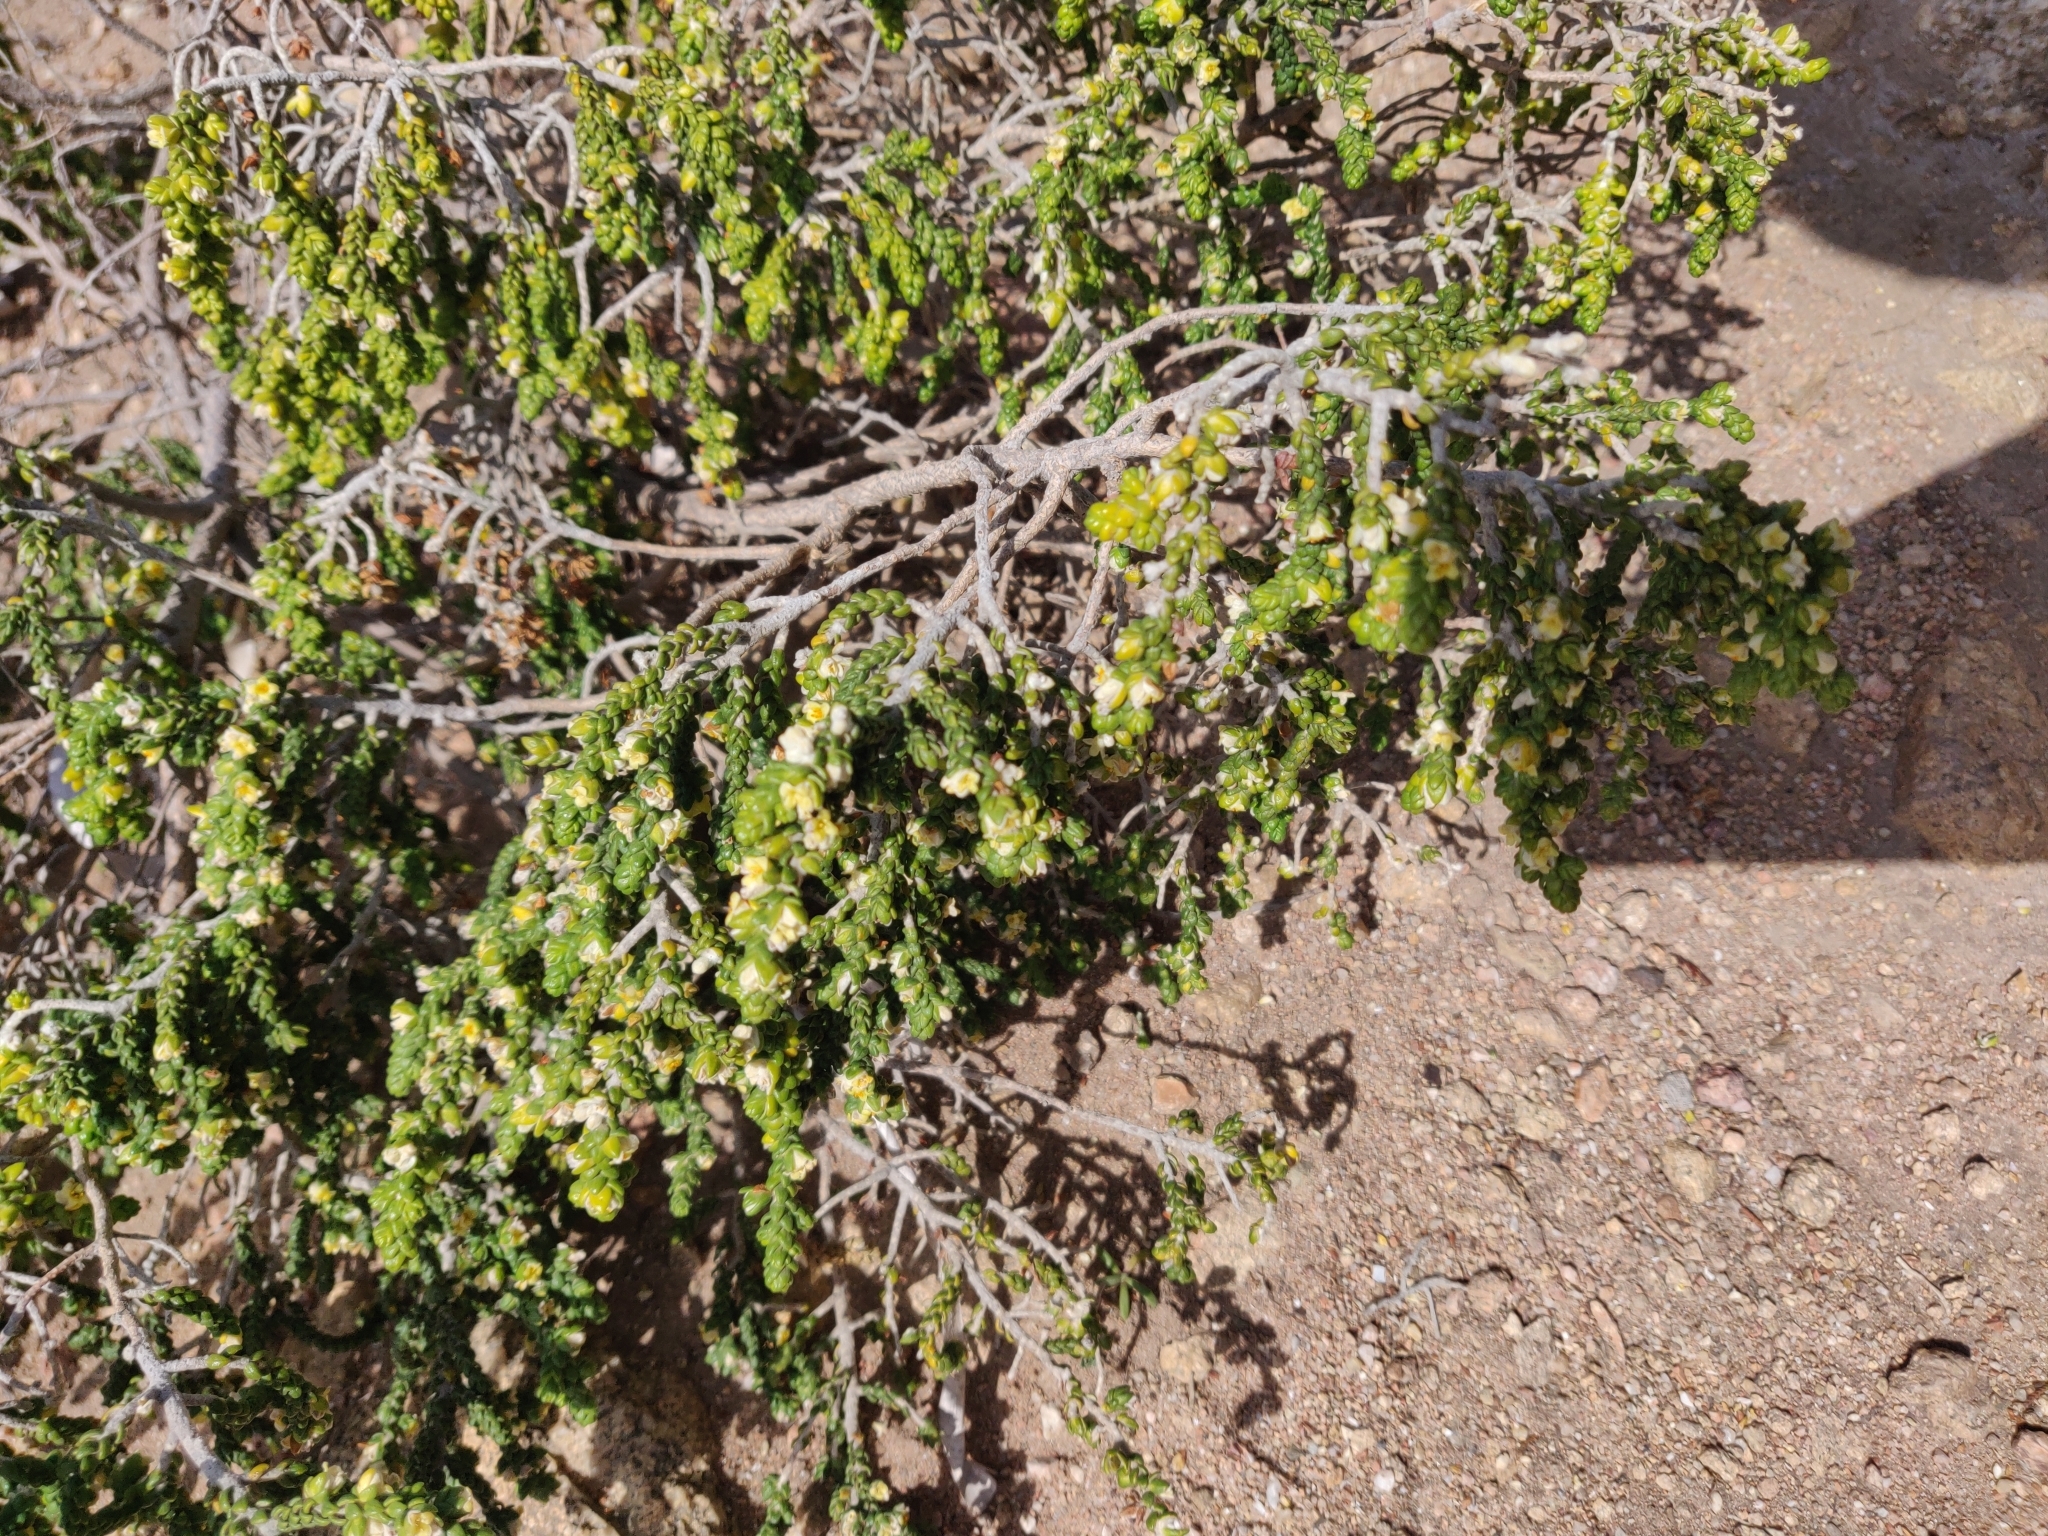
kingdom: Plantae
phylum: Tracheophyta
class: Magnoliopsida
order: Malvales
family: Thymelaeaceae
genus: Thymelaea
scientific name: Thymelaea hirsuta
